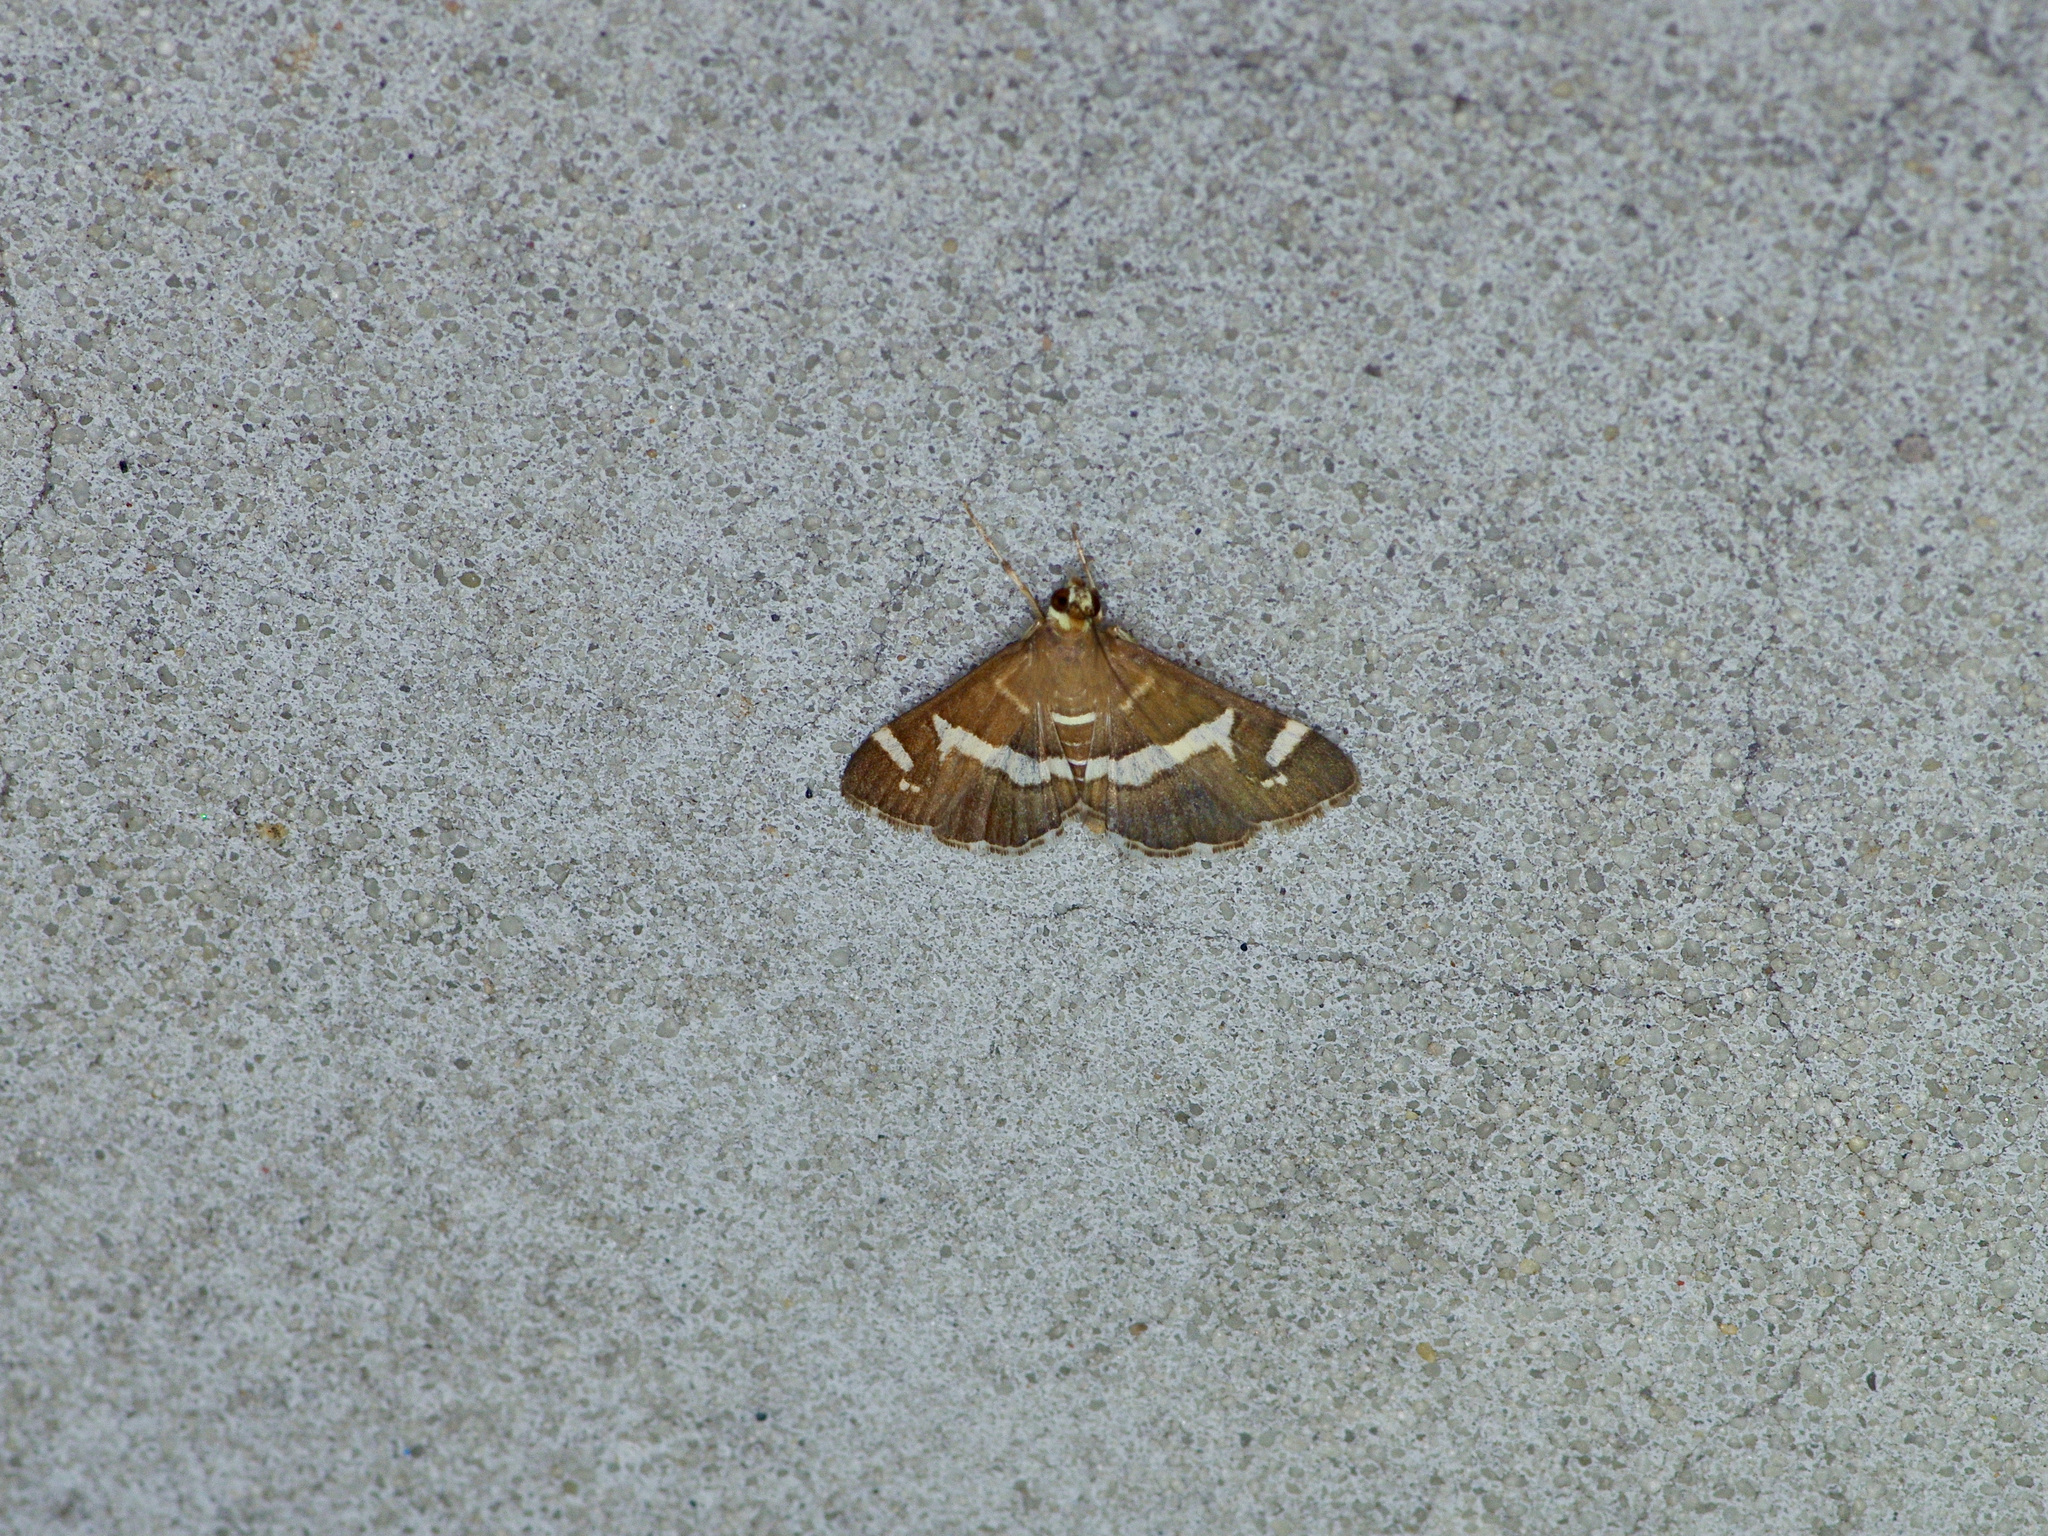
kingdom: Animalia
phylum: Arthropoda
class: Insecta
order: Lepidoptera
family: Crambidae
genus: Spoladea
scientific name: Spoladea recurvalis
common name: Beet webworm moth
